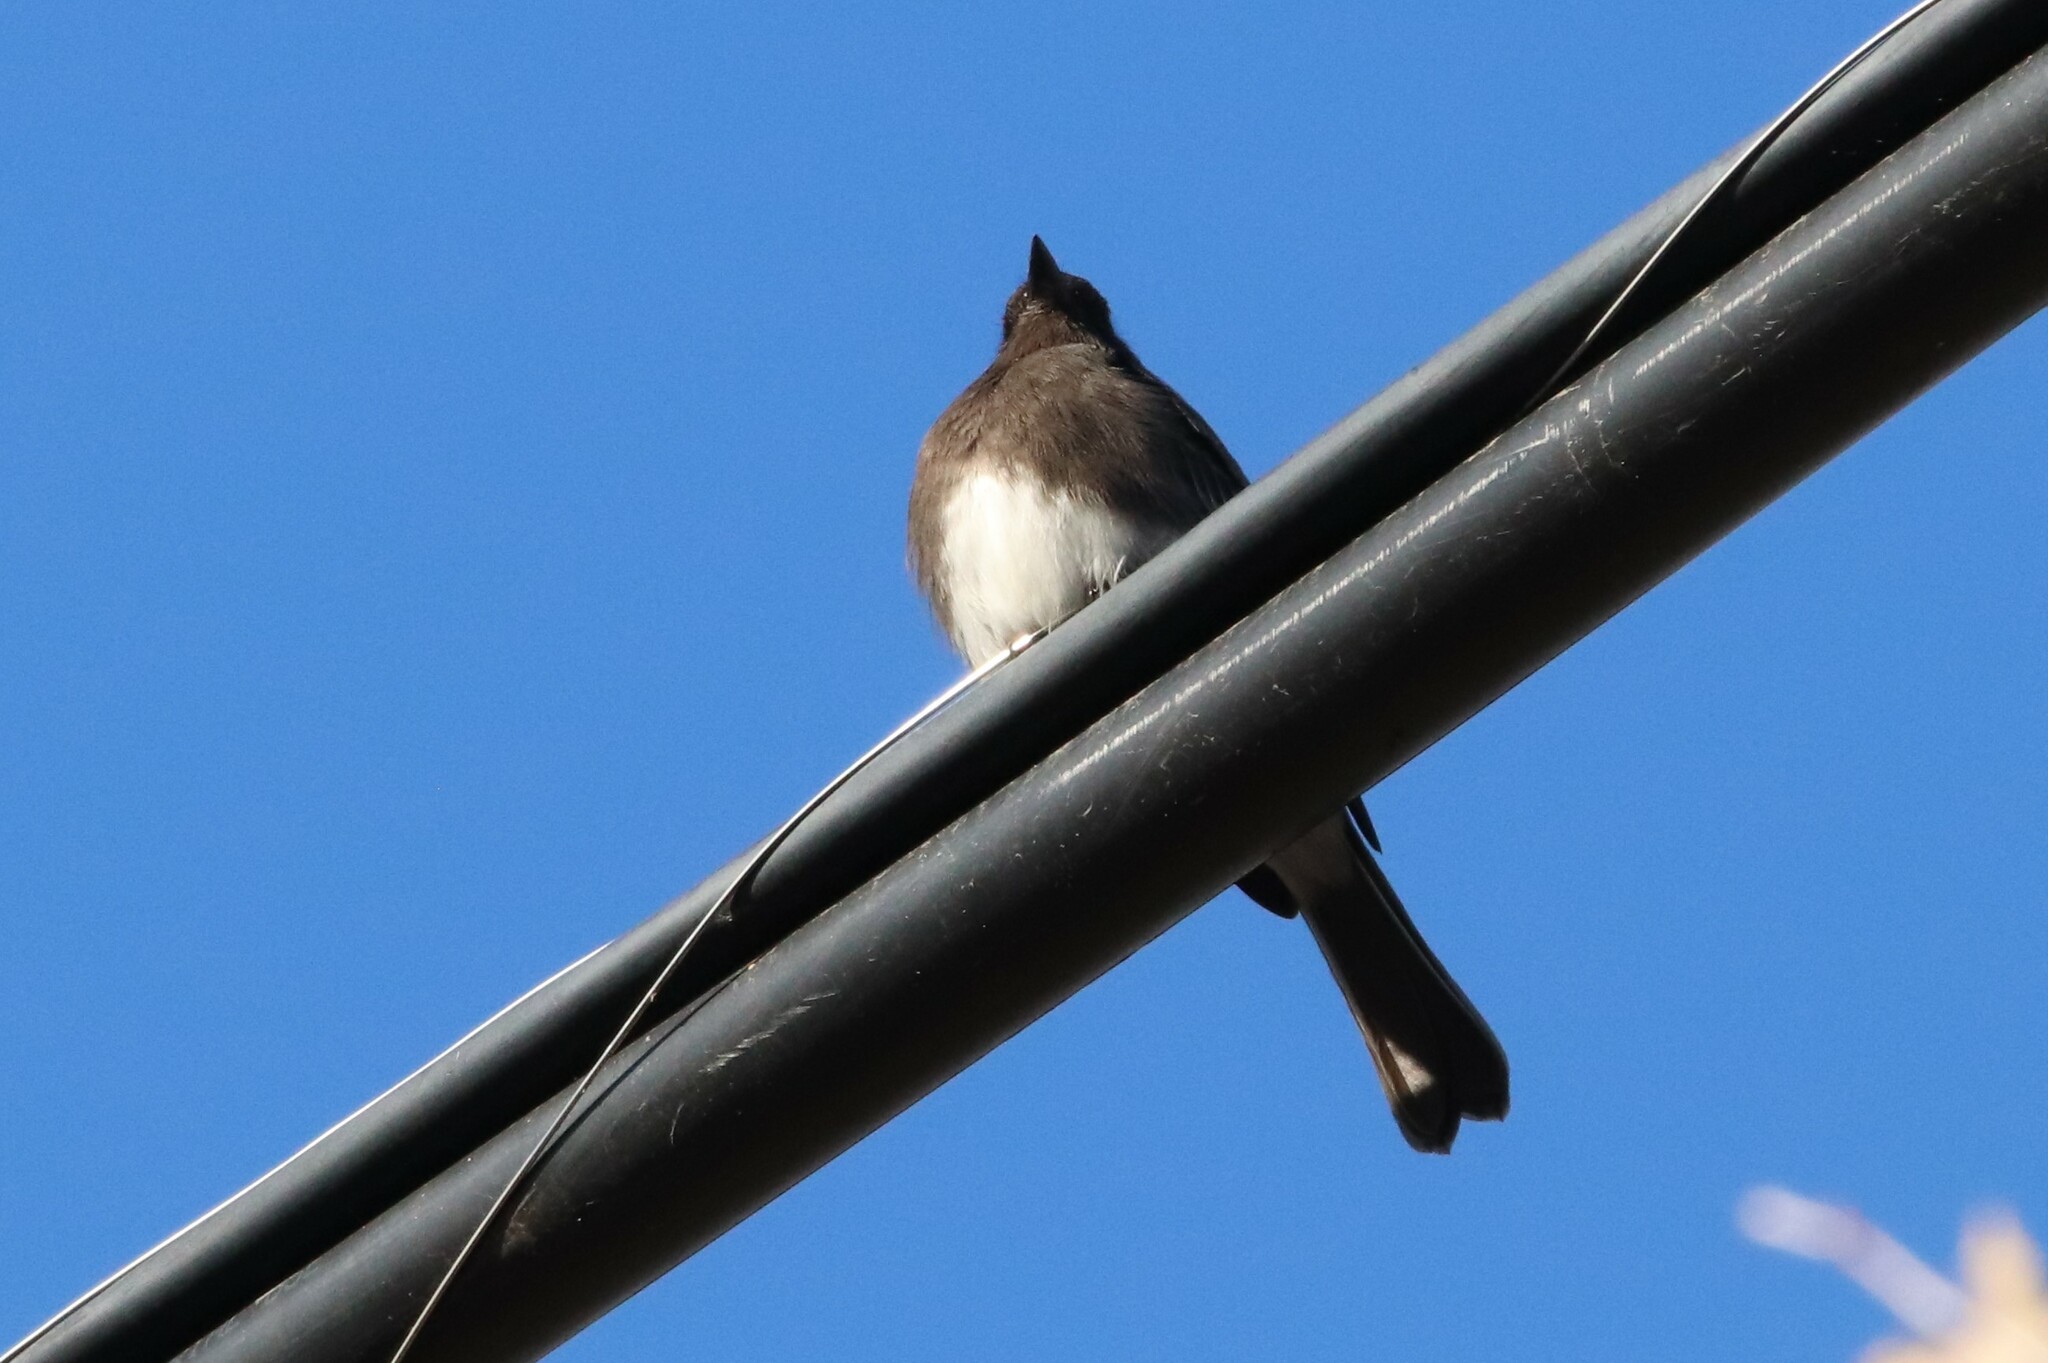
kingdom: Animalia
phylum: Chordata
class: Aves
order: Passeriformes
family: Tyrannidae
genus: Sayornis
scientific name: Sayornis nigricans
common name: Black phoebe
